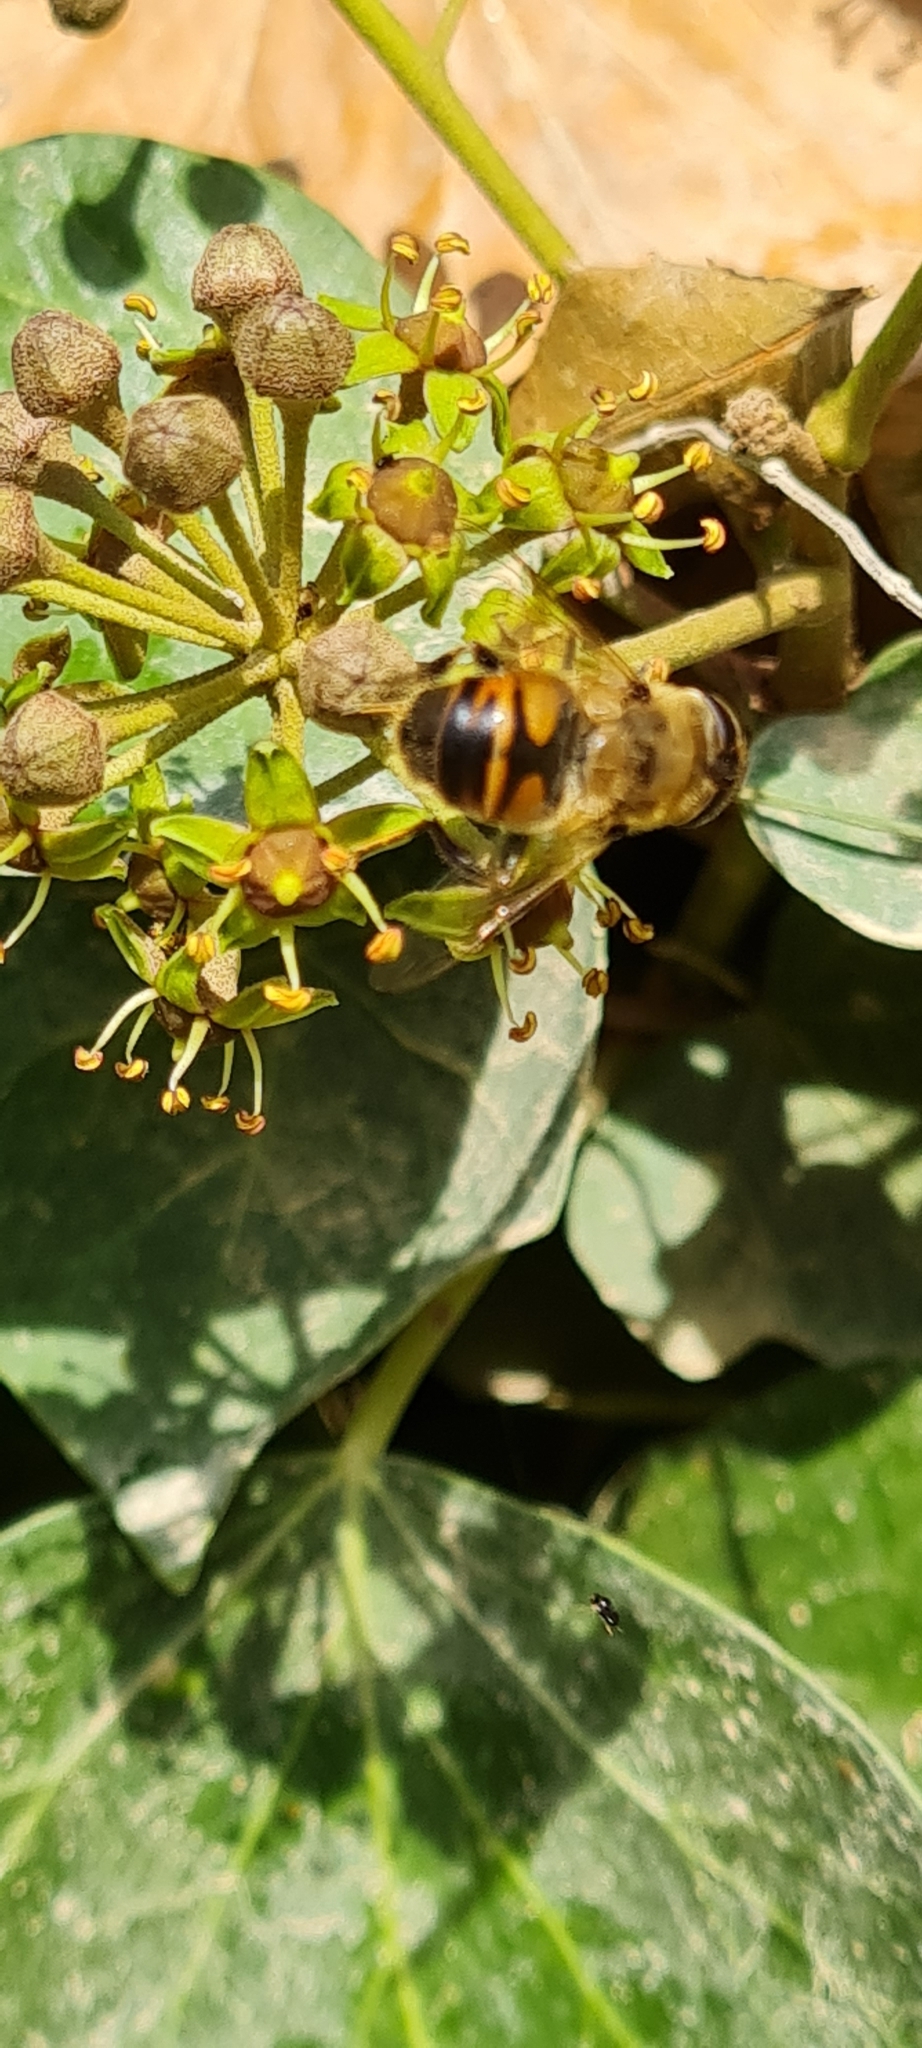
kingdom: Animalia
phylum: Arthropoda
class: Insecta
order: Diptera
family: Syrphidae
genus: Eristalis
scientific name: Eristalis tenax
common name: Drone fly
